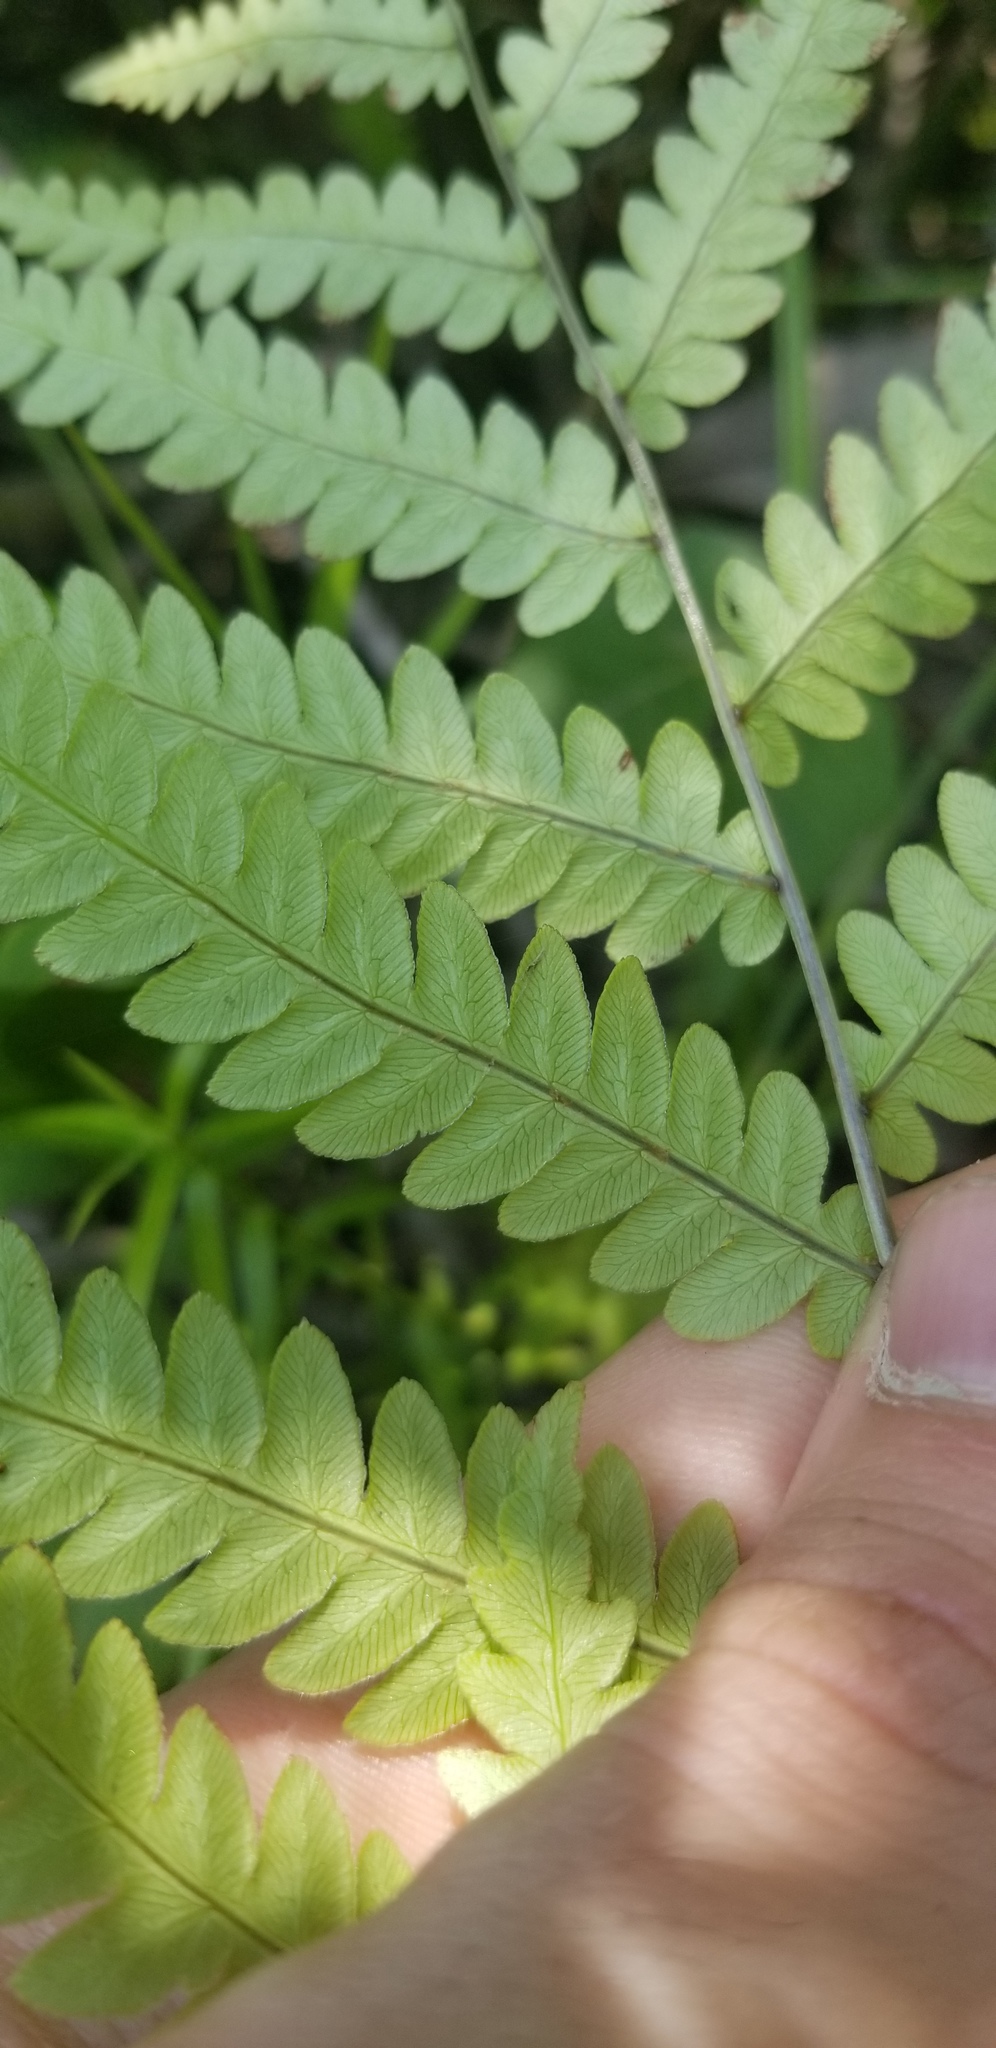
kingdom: Plantae
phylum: Tracheophyta
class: Polypodiopsida
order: Polypodiales
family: Blechnaceae
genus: Anchistea
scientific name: Anchistea virginica
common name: Virginia chain fern
